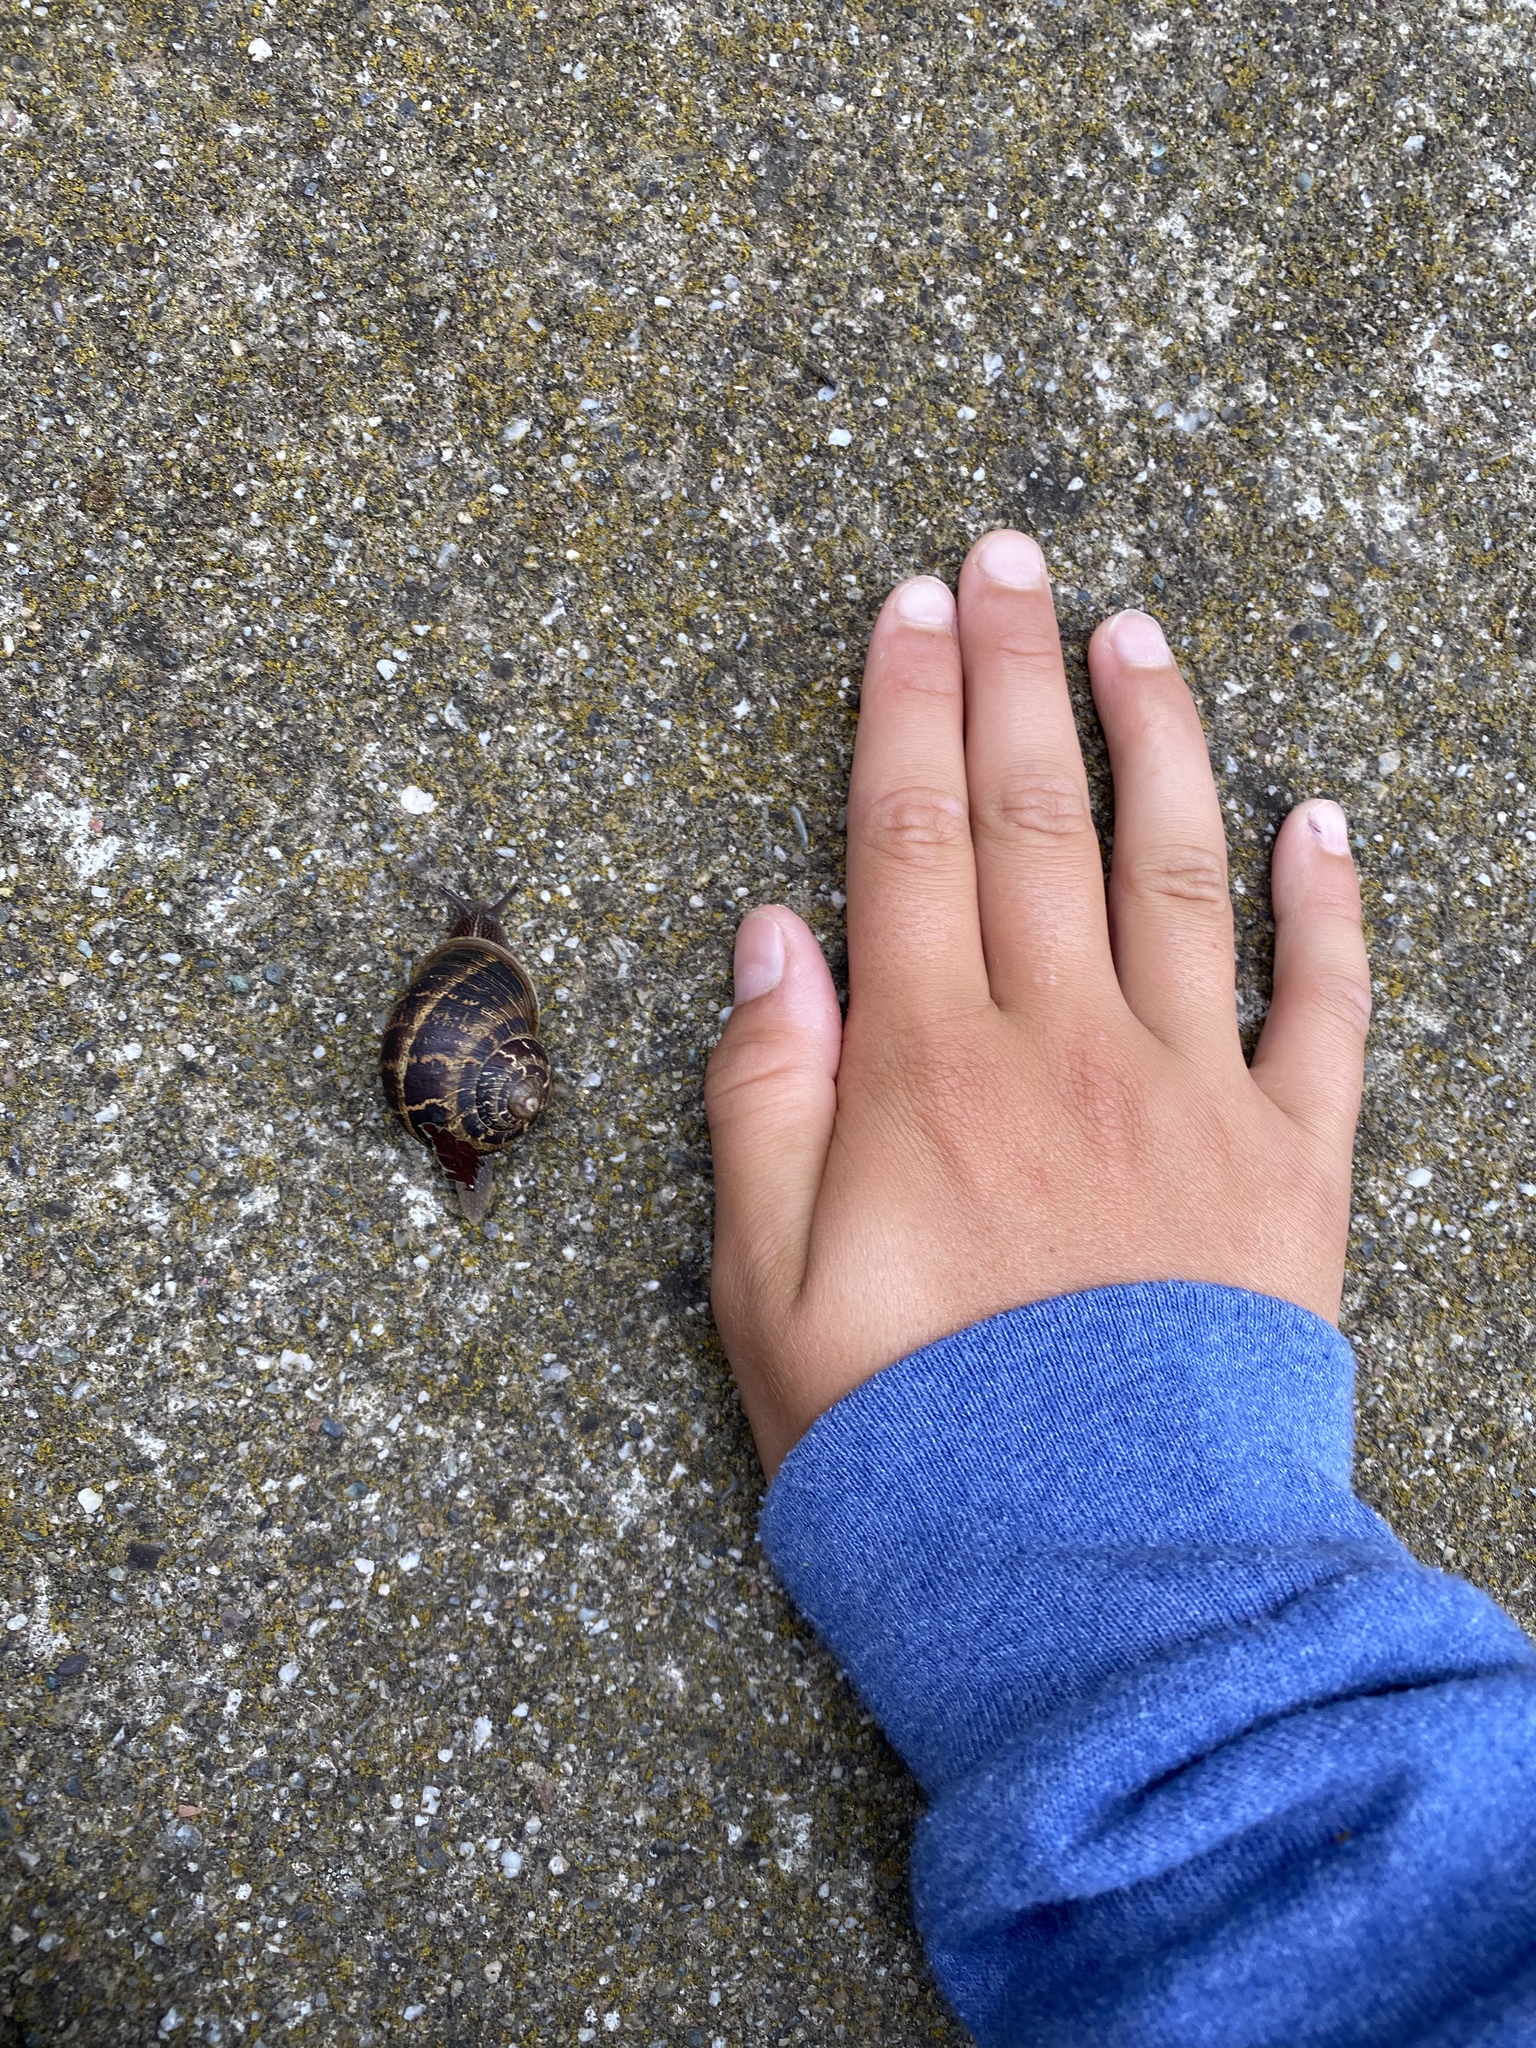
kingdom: Animalia
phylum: Mollusca
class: Gastropoda
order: Stylommatophora
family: Helicidae
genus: Cornu
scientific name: Cornu aspersum
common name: Brown garden snail
